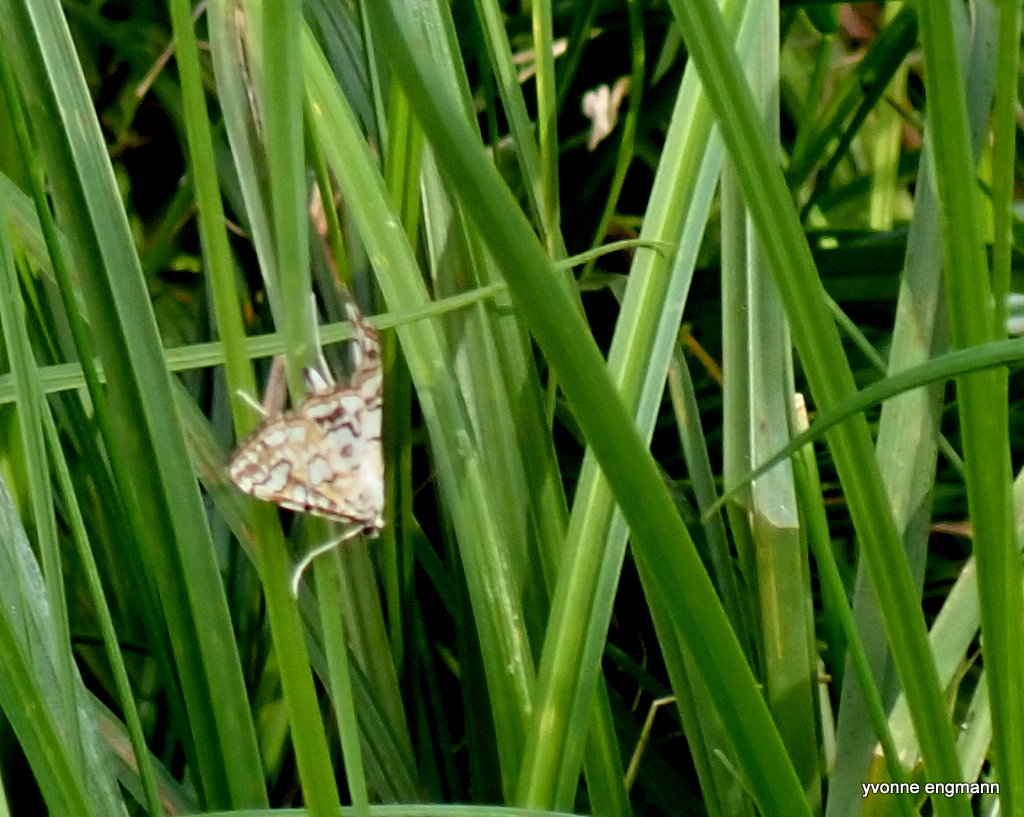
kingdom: Animalia
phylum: Arthropoda
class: Insecta
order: Lepidoptera
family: Crambidae
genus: Elophila
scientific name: Elophila nymphaeata
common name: Brown china-mark
